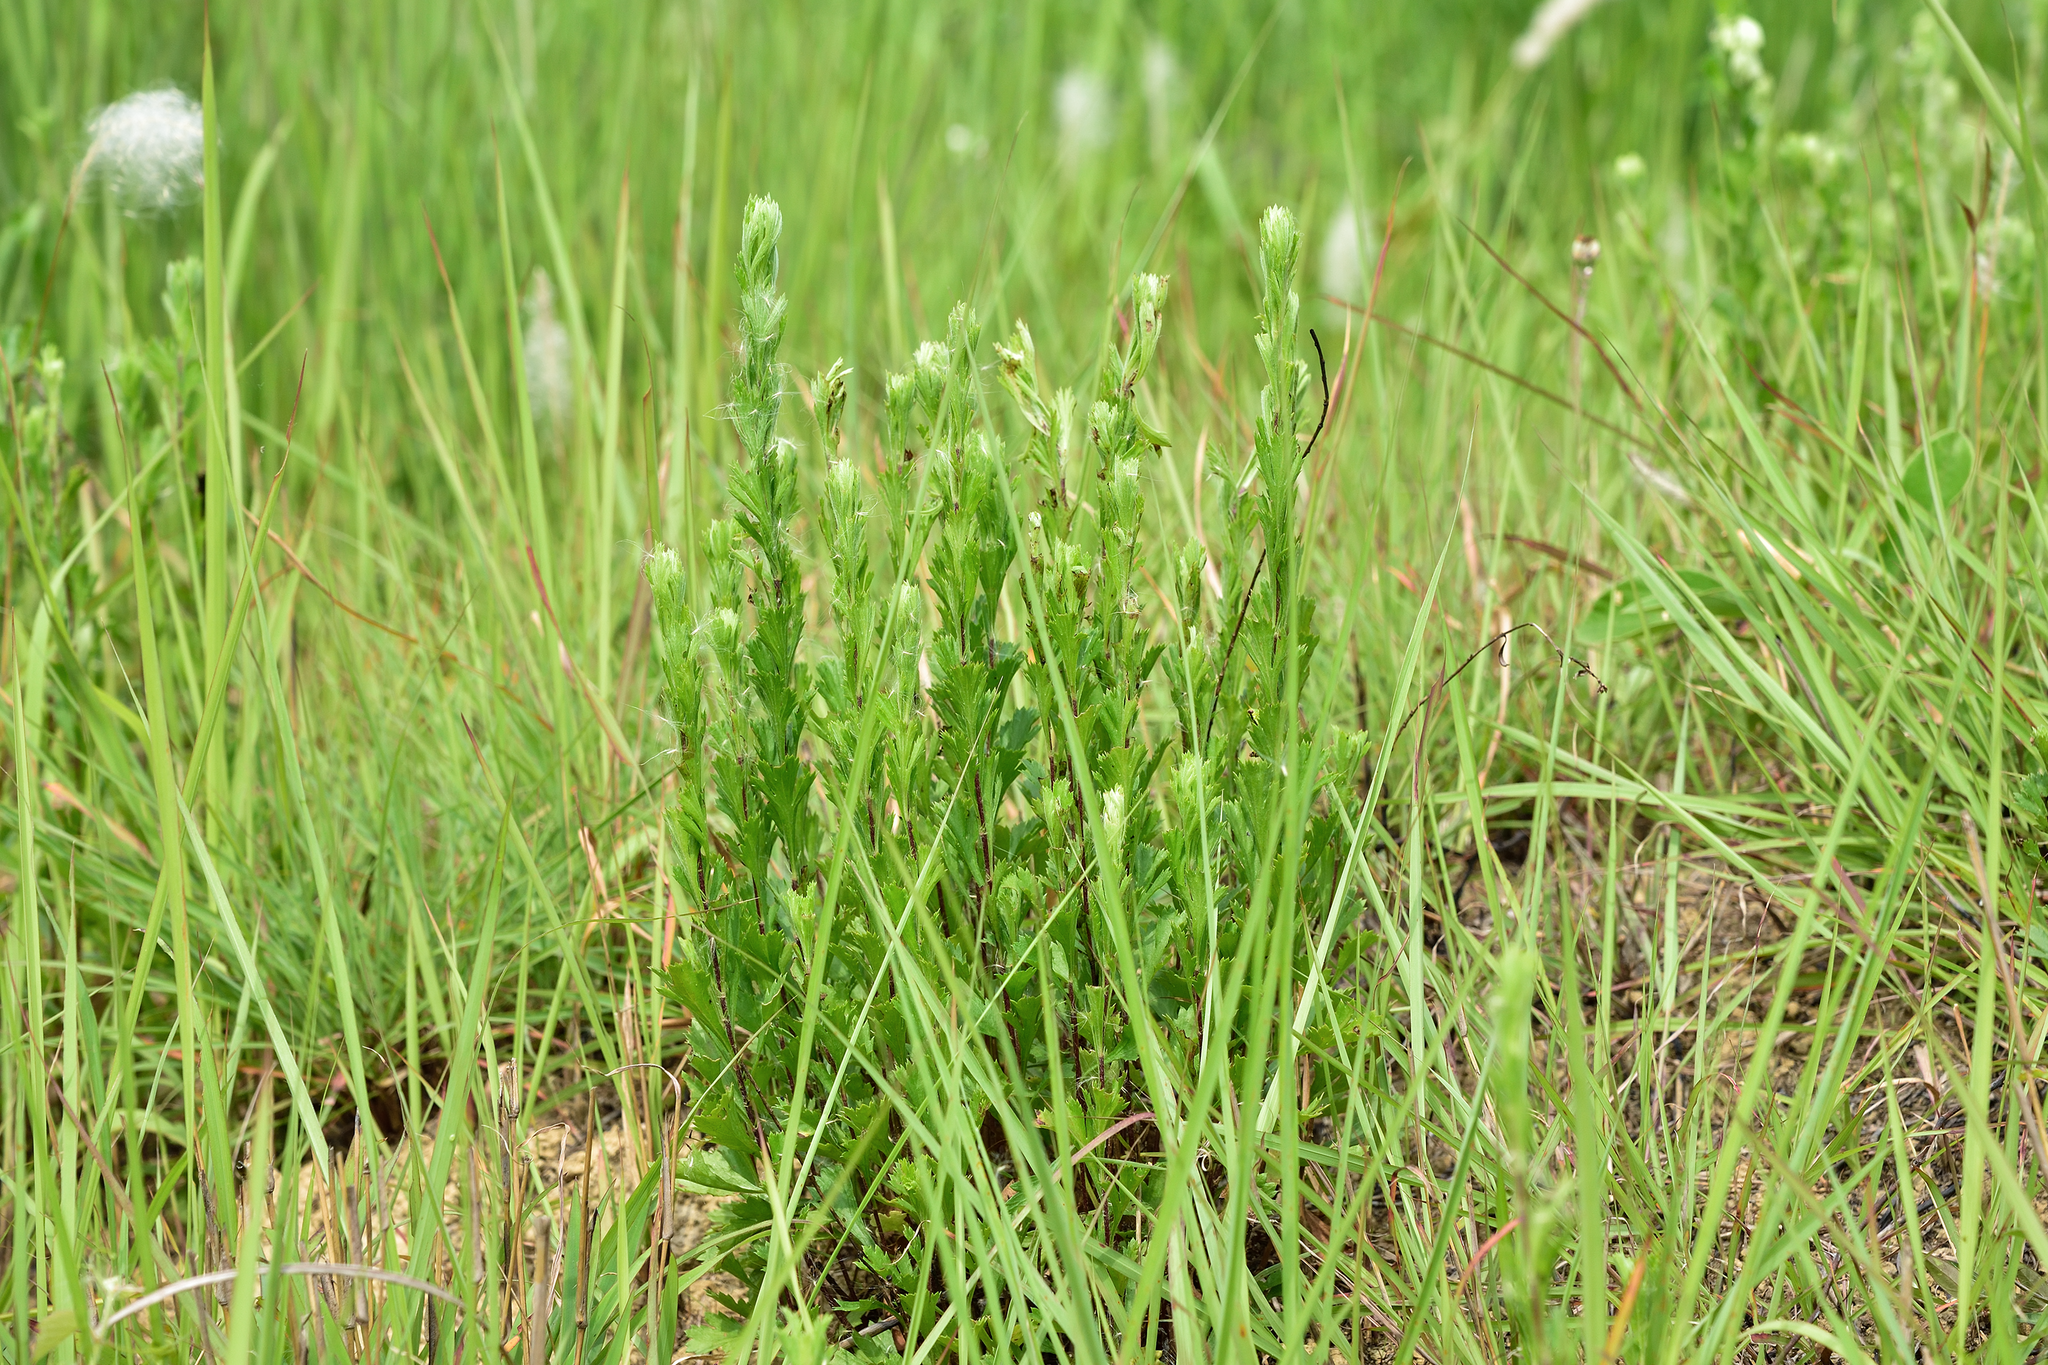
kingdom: Plantae
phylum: Tracheophyta
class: Magnoliopsida
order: Asterales
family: Asteraceae
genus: Artemisia
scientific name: Artemisia japonica
